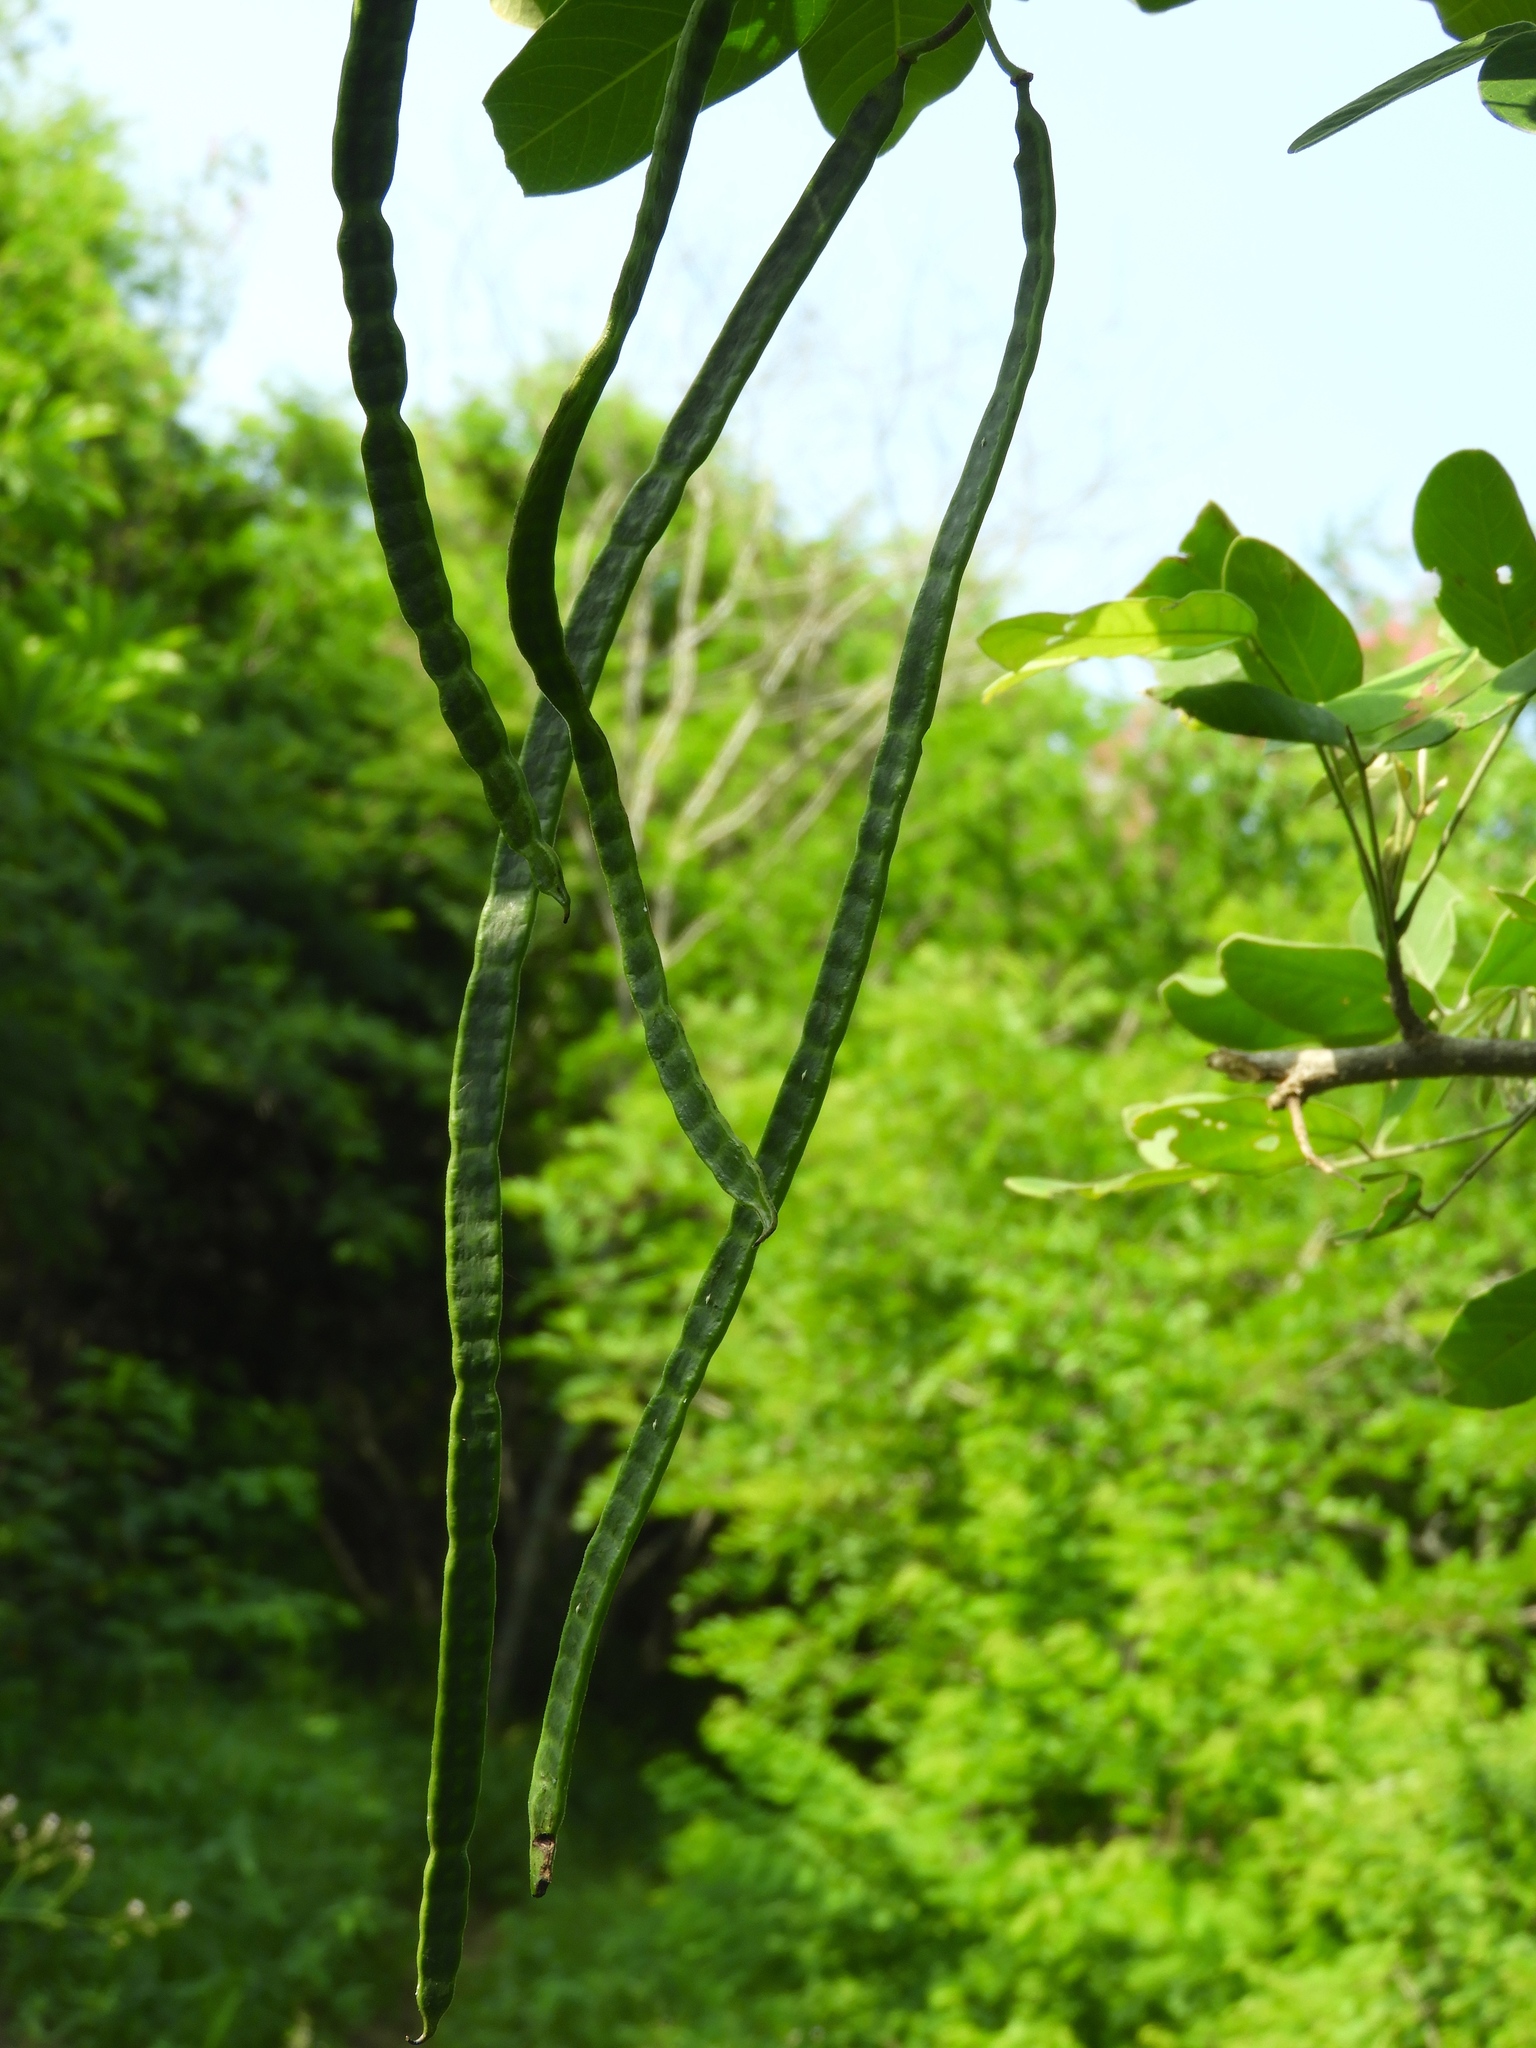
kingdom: Plantae
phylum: Tracheophyta
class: Magnoliopsida
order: Fabales
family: Fabaceae
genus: Senna
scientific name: Senna atomaria
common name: Flor de san jose
